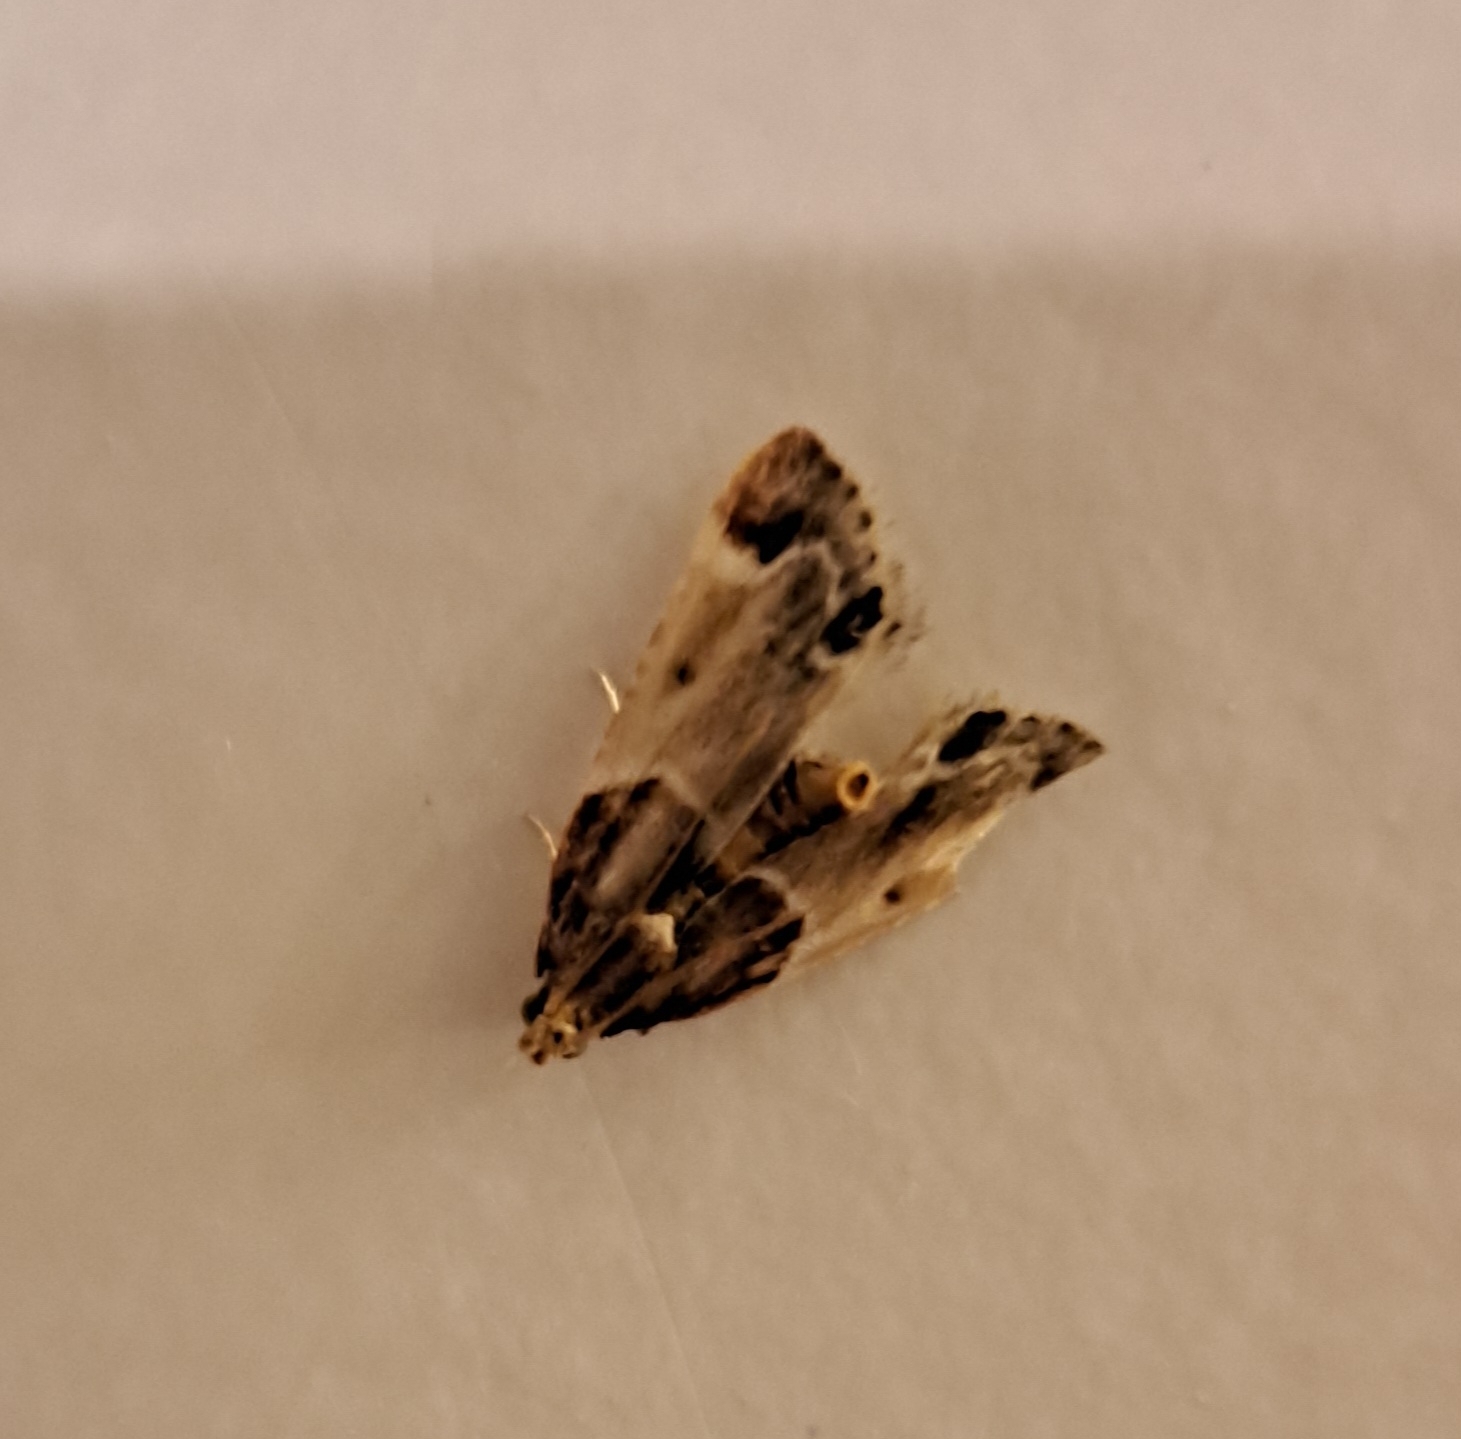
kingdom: Animalia
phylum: Arthropoda
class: Insecta
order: Lepidoptera
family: Pyralidae
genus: Pyralis
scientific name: Pyralis farinalis
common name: Meal moth
